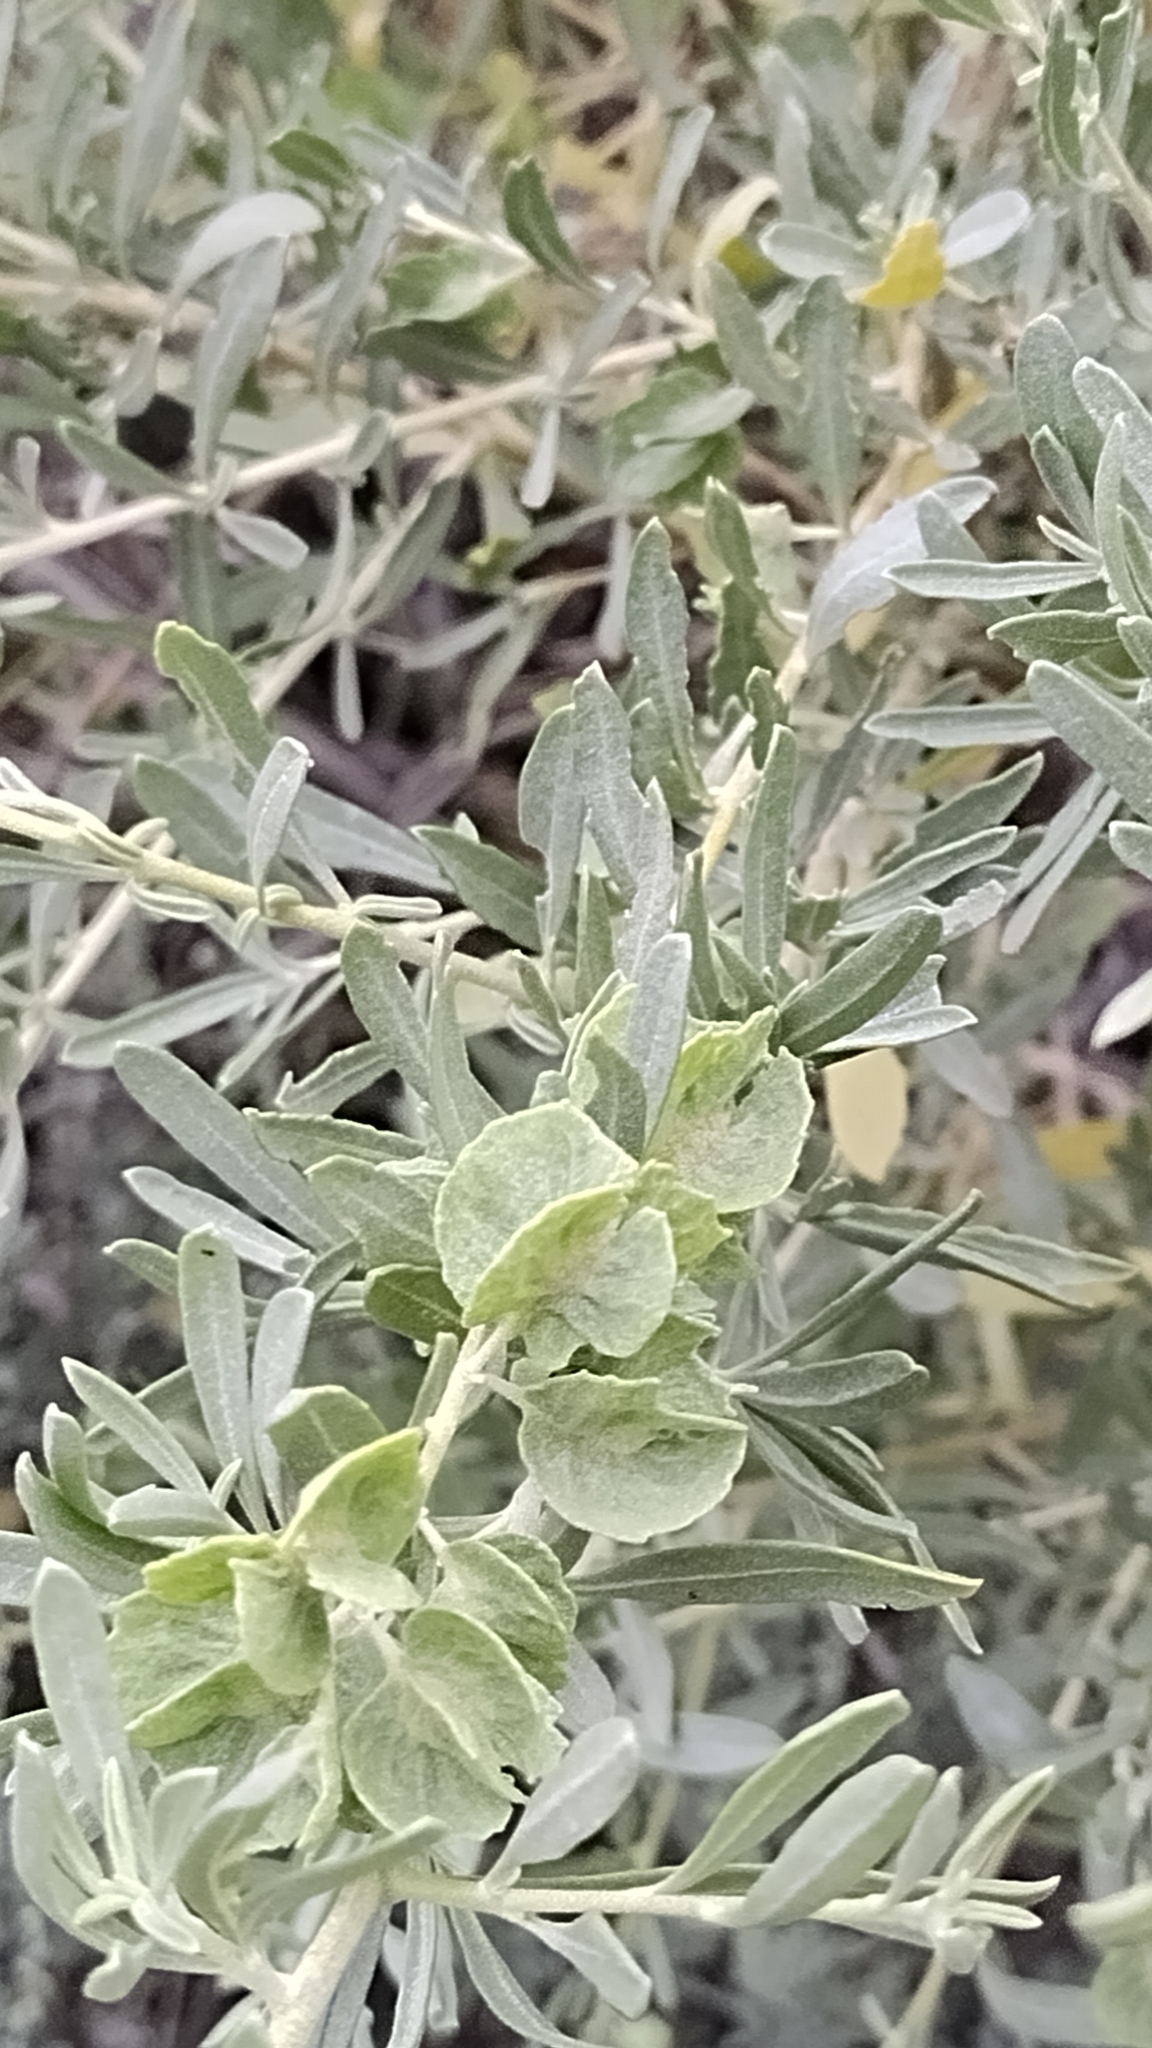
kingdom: Plantae
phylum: Tracheophyta
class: Magnoliopsida
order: Caryophyllales
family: Amaranthaceae
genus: Atriplex
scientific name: Atriplex canescens
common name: Four-wing saltbush
